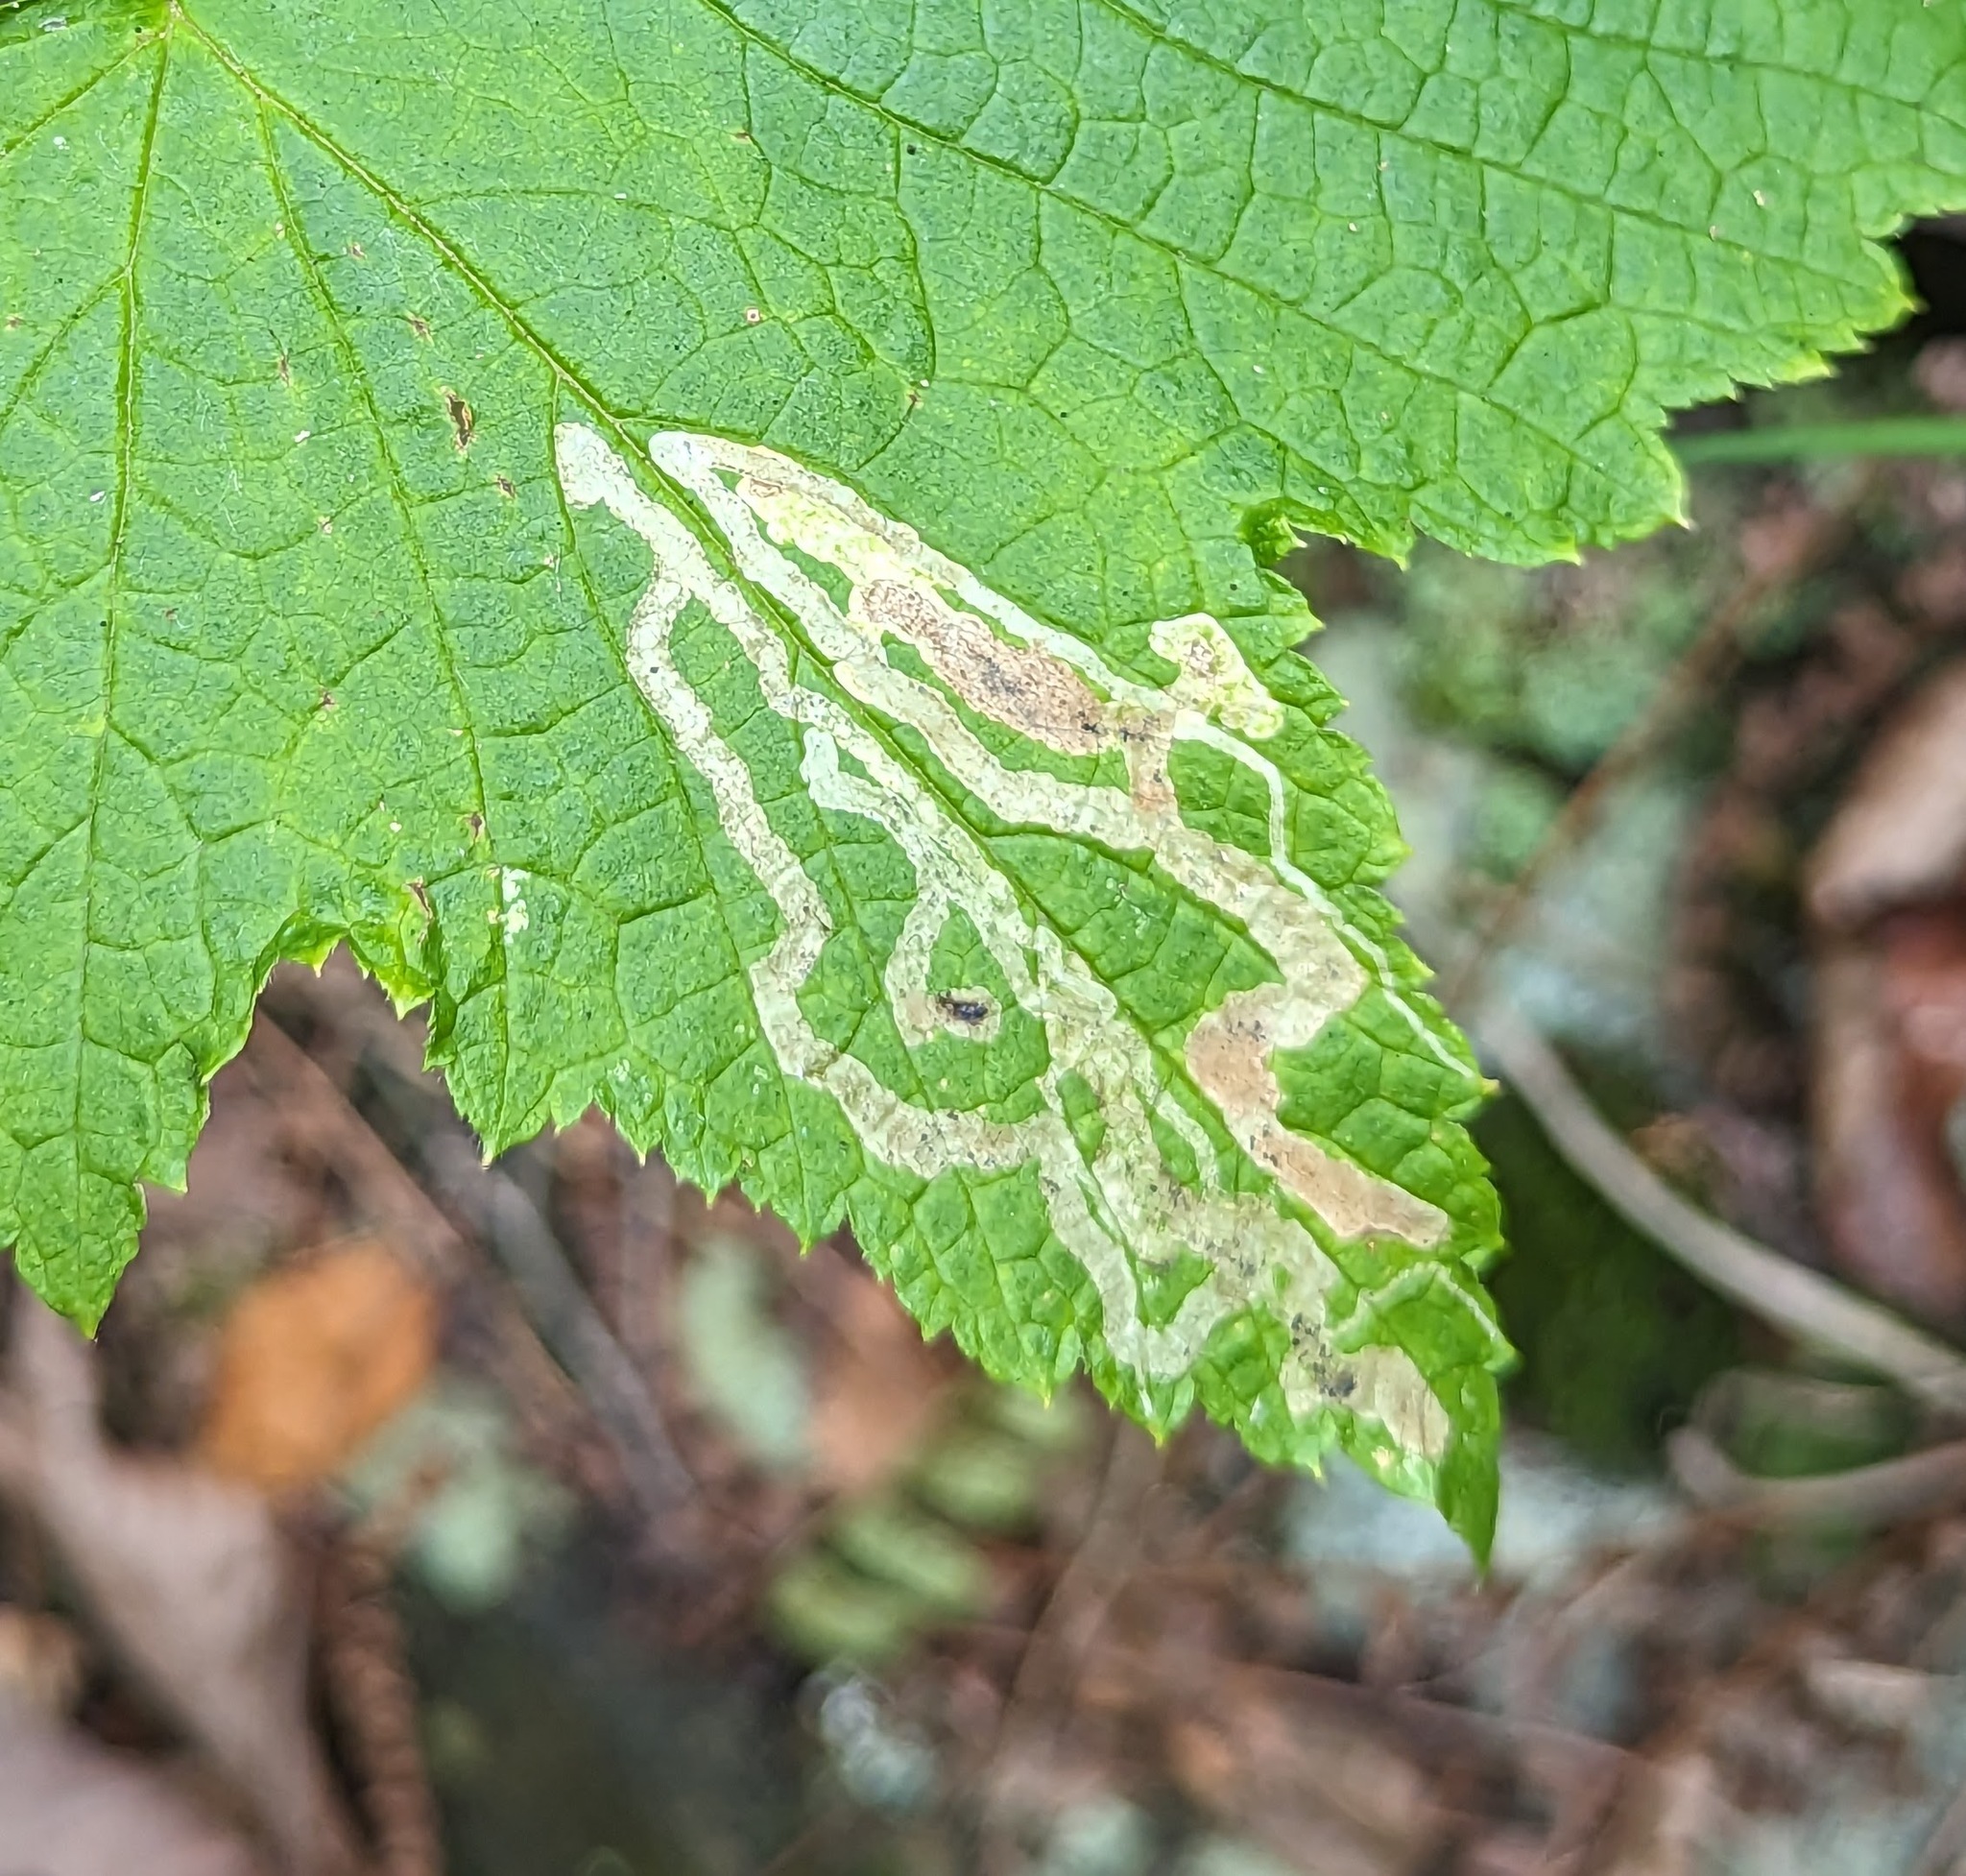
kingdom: Animalia
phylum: Arthropoda
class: Insecta
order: Diptera
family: Agromyzidae
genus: Agromyza
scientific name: Agromyza vockerothi
